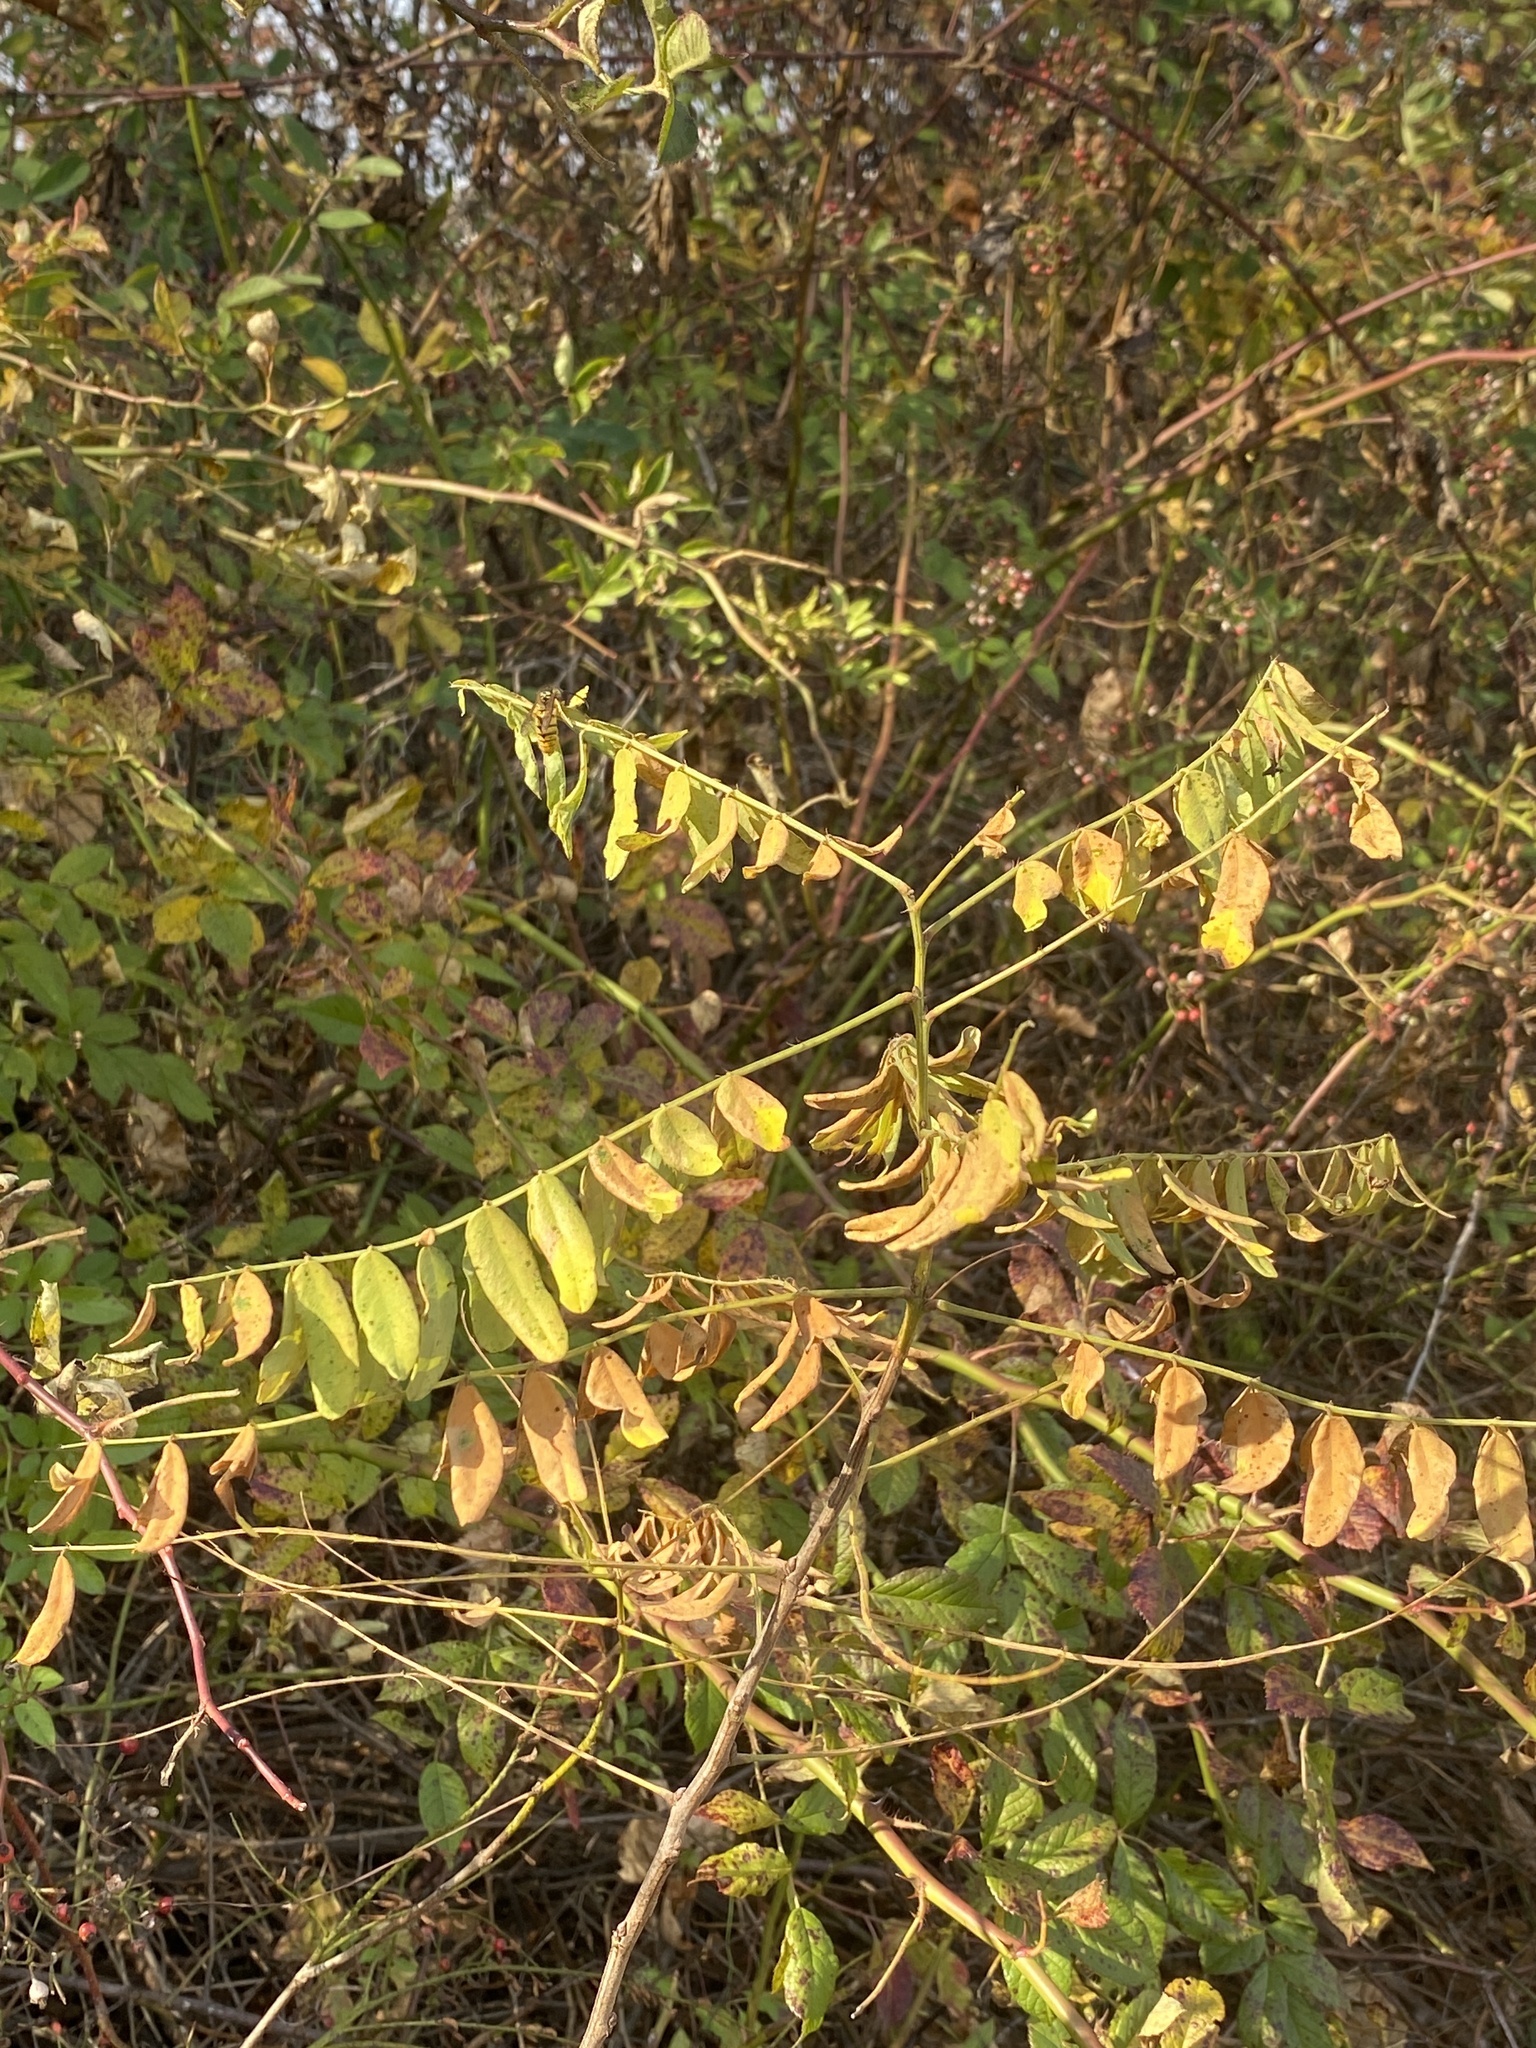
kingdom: Plantae
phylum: Tracheophyta
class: Magnoliopsida
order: Fabales
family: Fabaceae
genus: Amorpha
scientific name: Amorpha fruticosa
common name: False indigo
